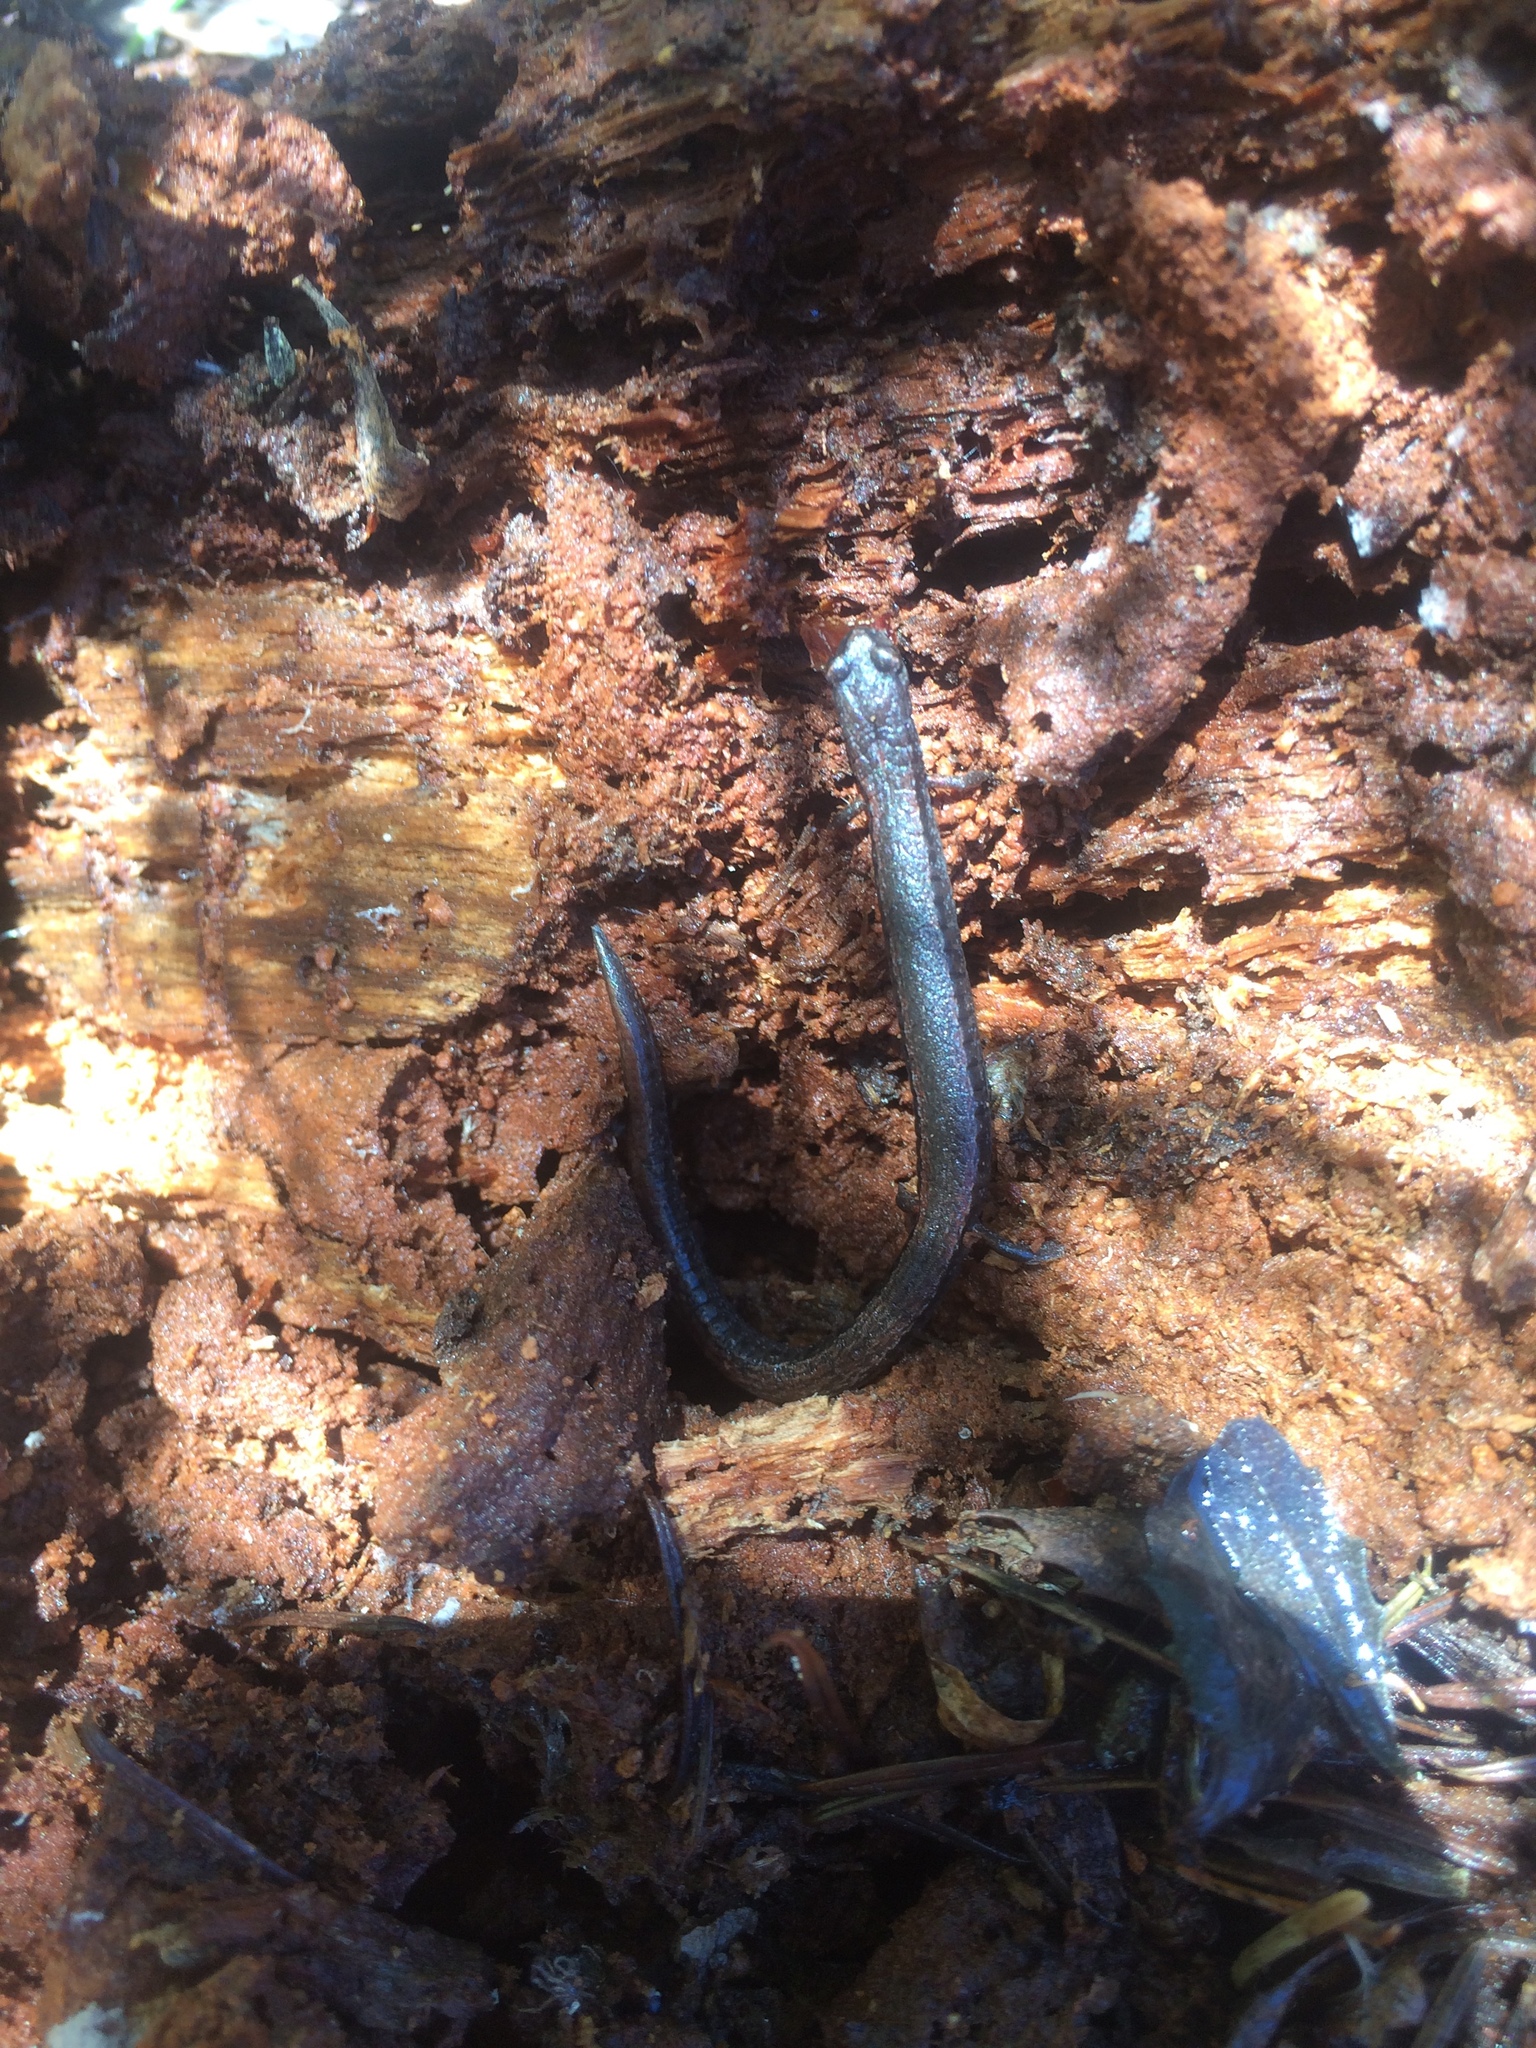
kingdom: Animalia
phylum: Chordata
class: Amphibia
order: Caudata
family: Plethodontidae
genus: Batrachoseps
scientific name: Batrachoseps attenuatus
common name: California slender salamander
